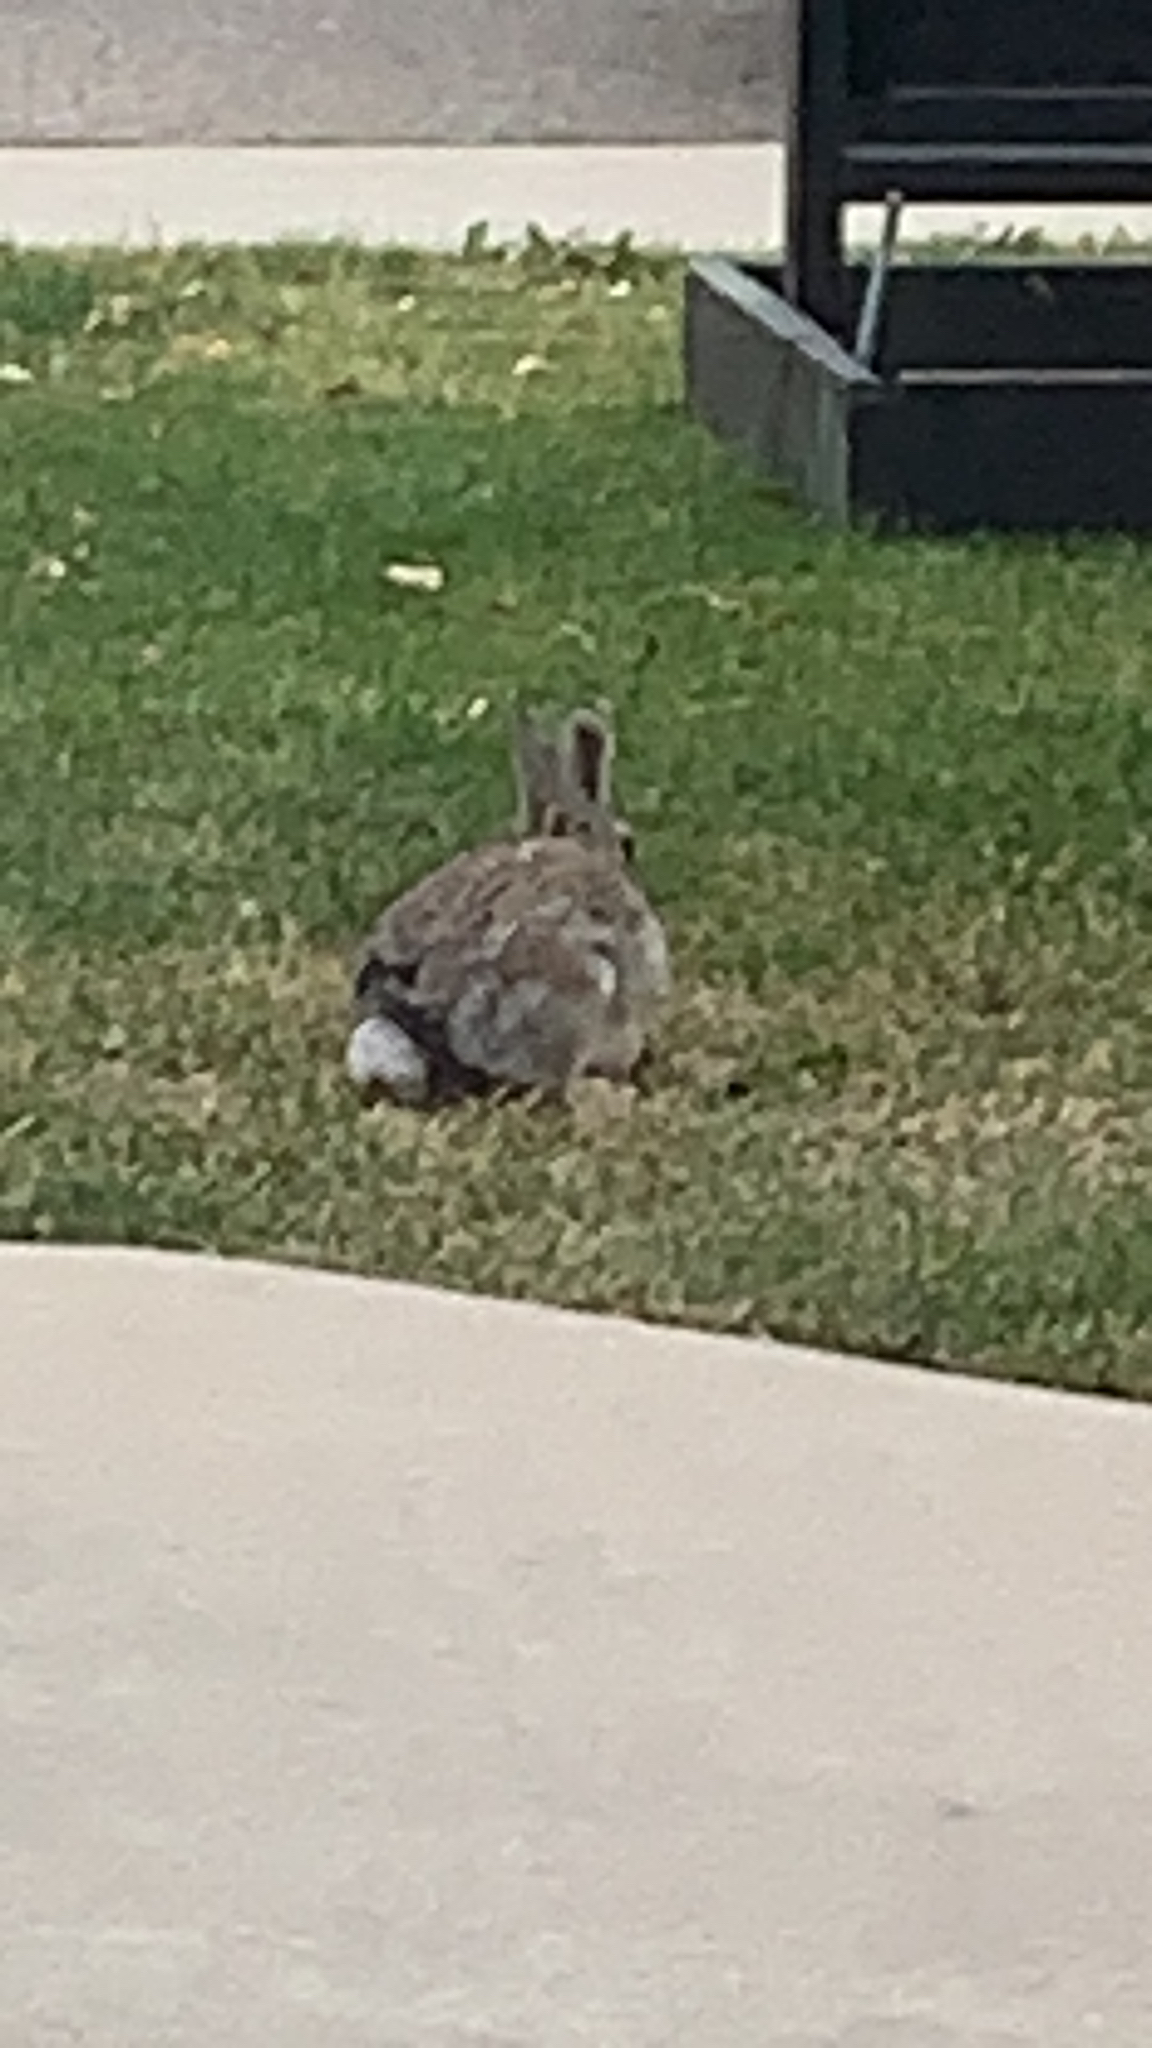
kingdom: Animalia
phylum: Chordata
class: Mammalia
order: Lagomorpha
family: Leporidae
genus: Lepus
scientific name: Lepus townsendii
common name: White-tailed jackrabbit
